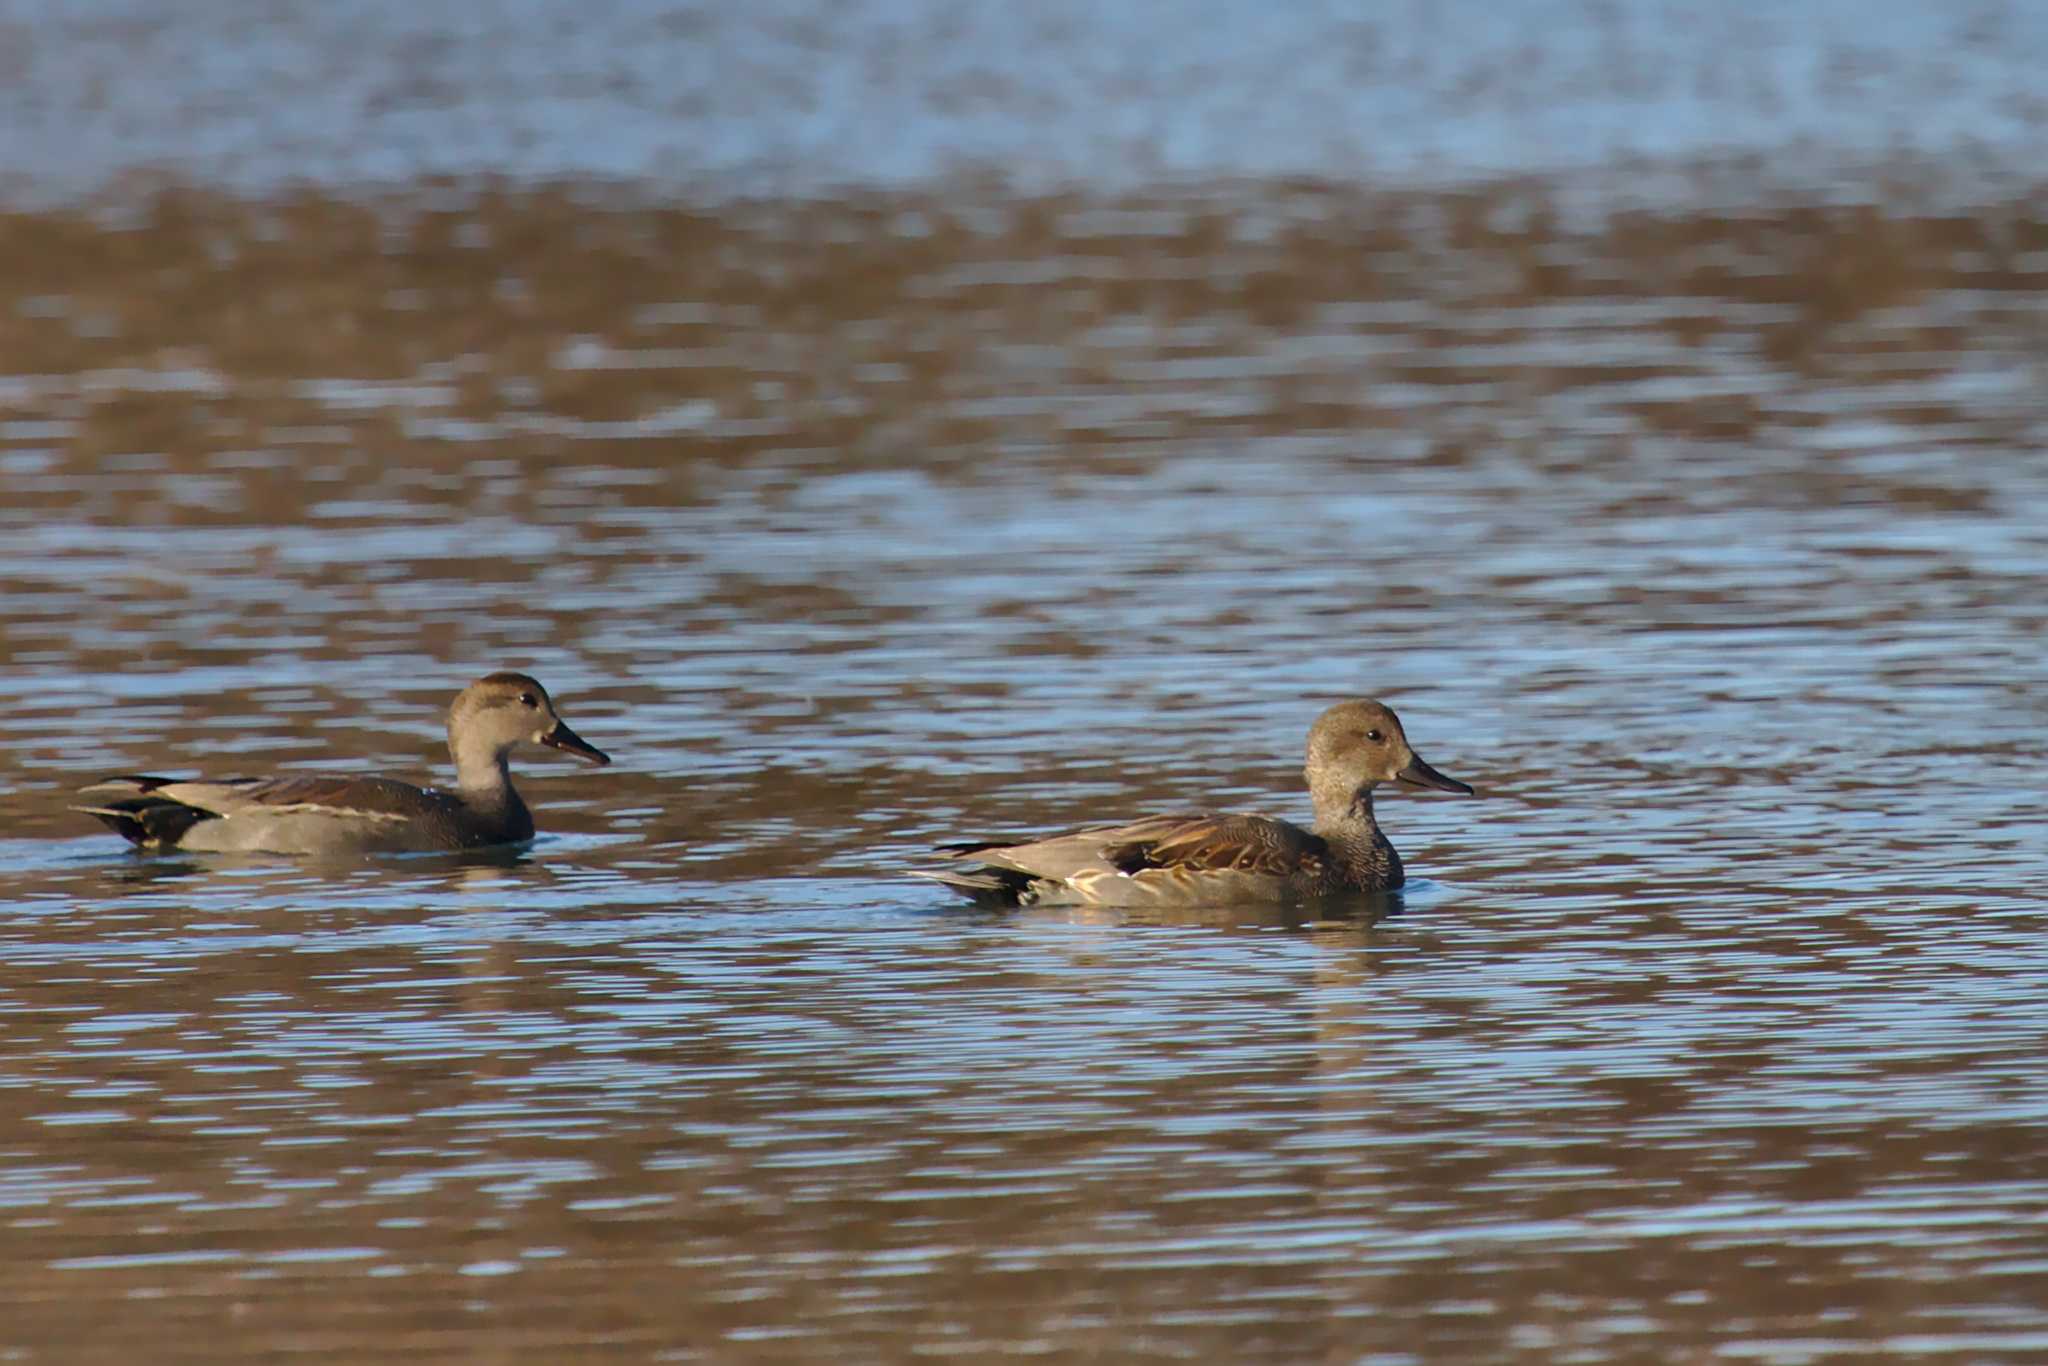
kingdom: Animalia
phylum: Chordata
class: Aves
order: Anseriformes
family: Anatidae
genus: Mareca
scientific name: Mareca strepera
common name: Gadwall
